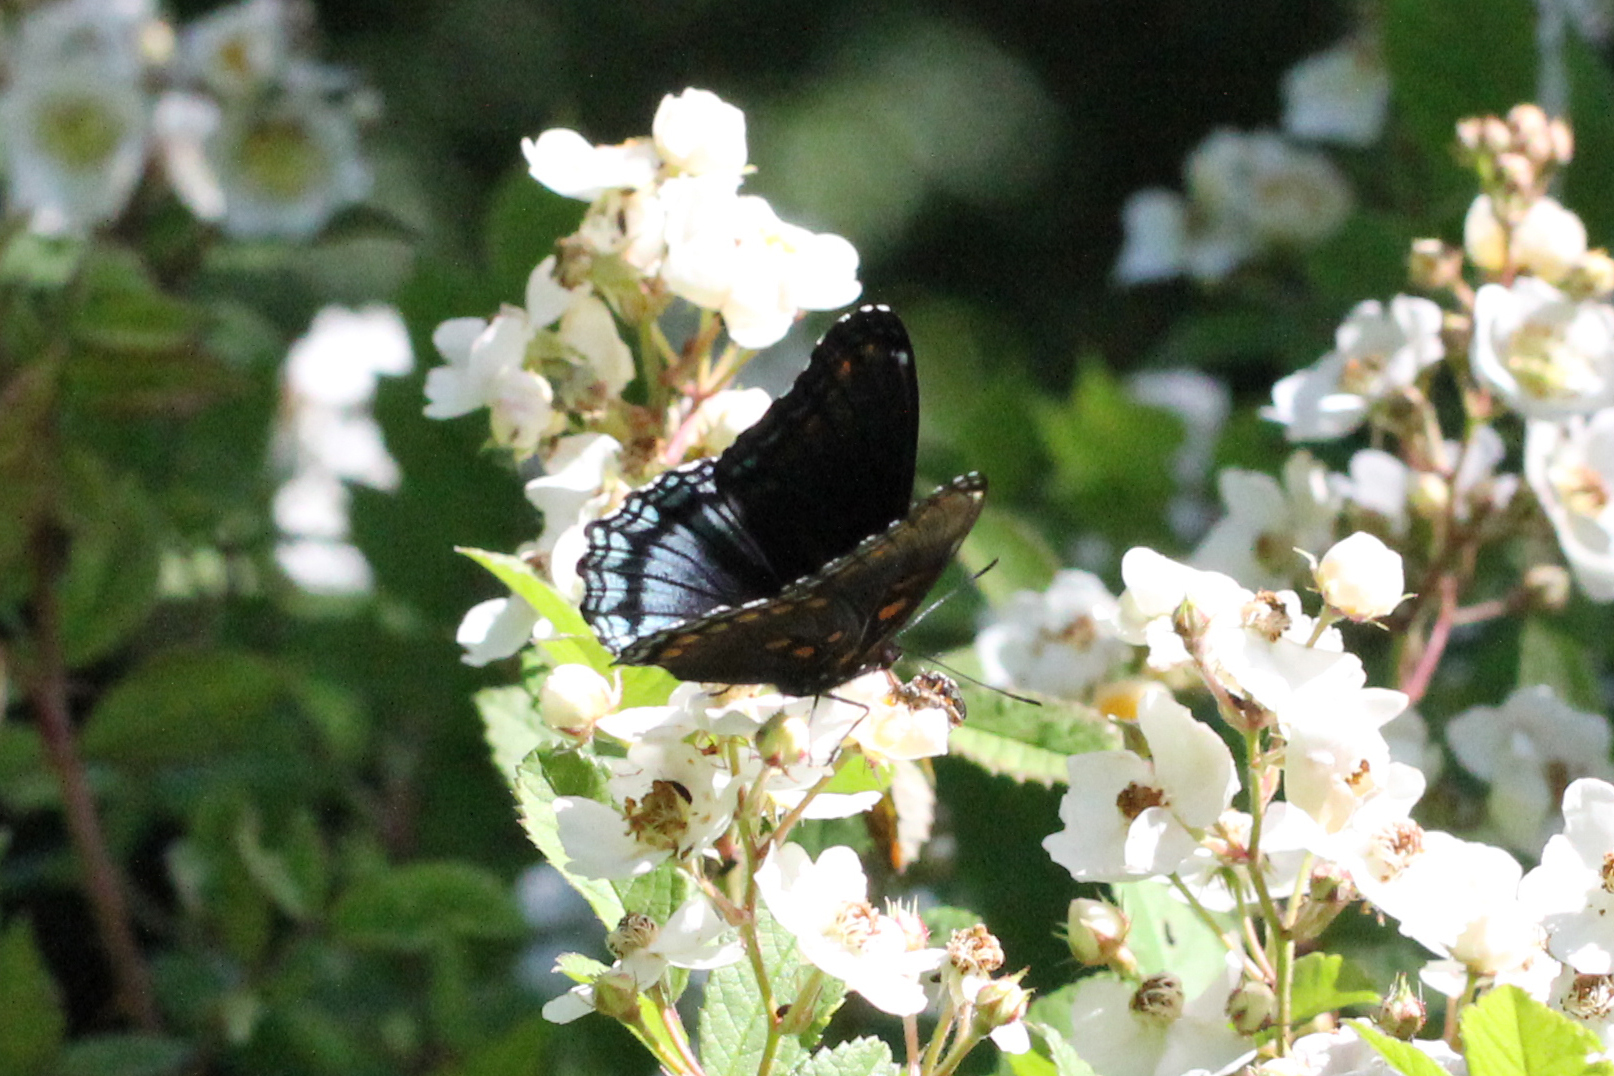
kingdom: Animalia
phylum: Arthropoda
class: Insecta
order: Lepidoptera
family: Nymphalidae
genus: Limenitis
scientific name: Limenitis astyanax
